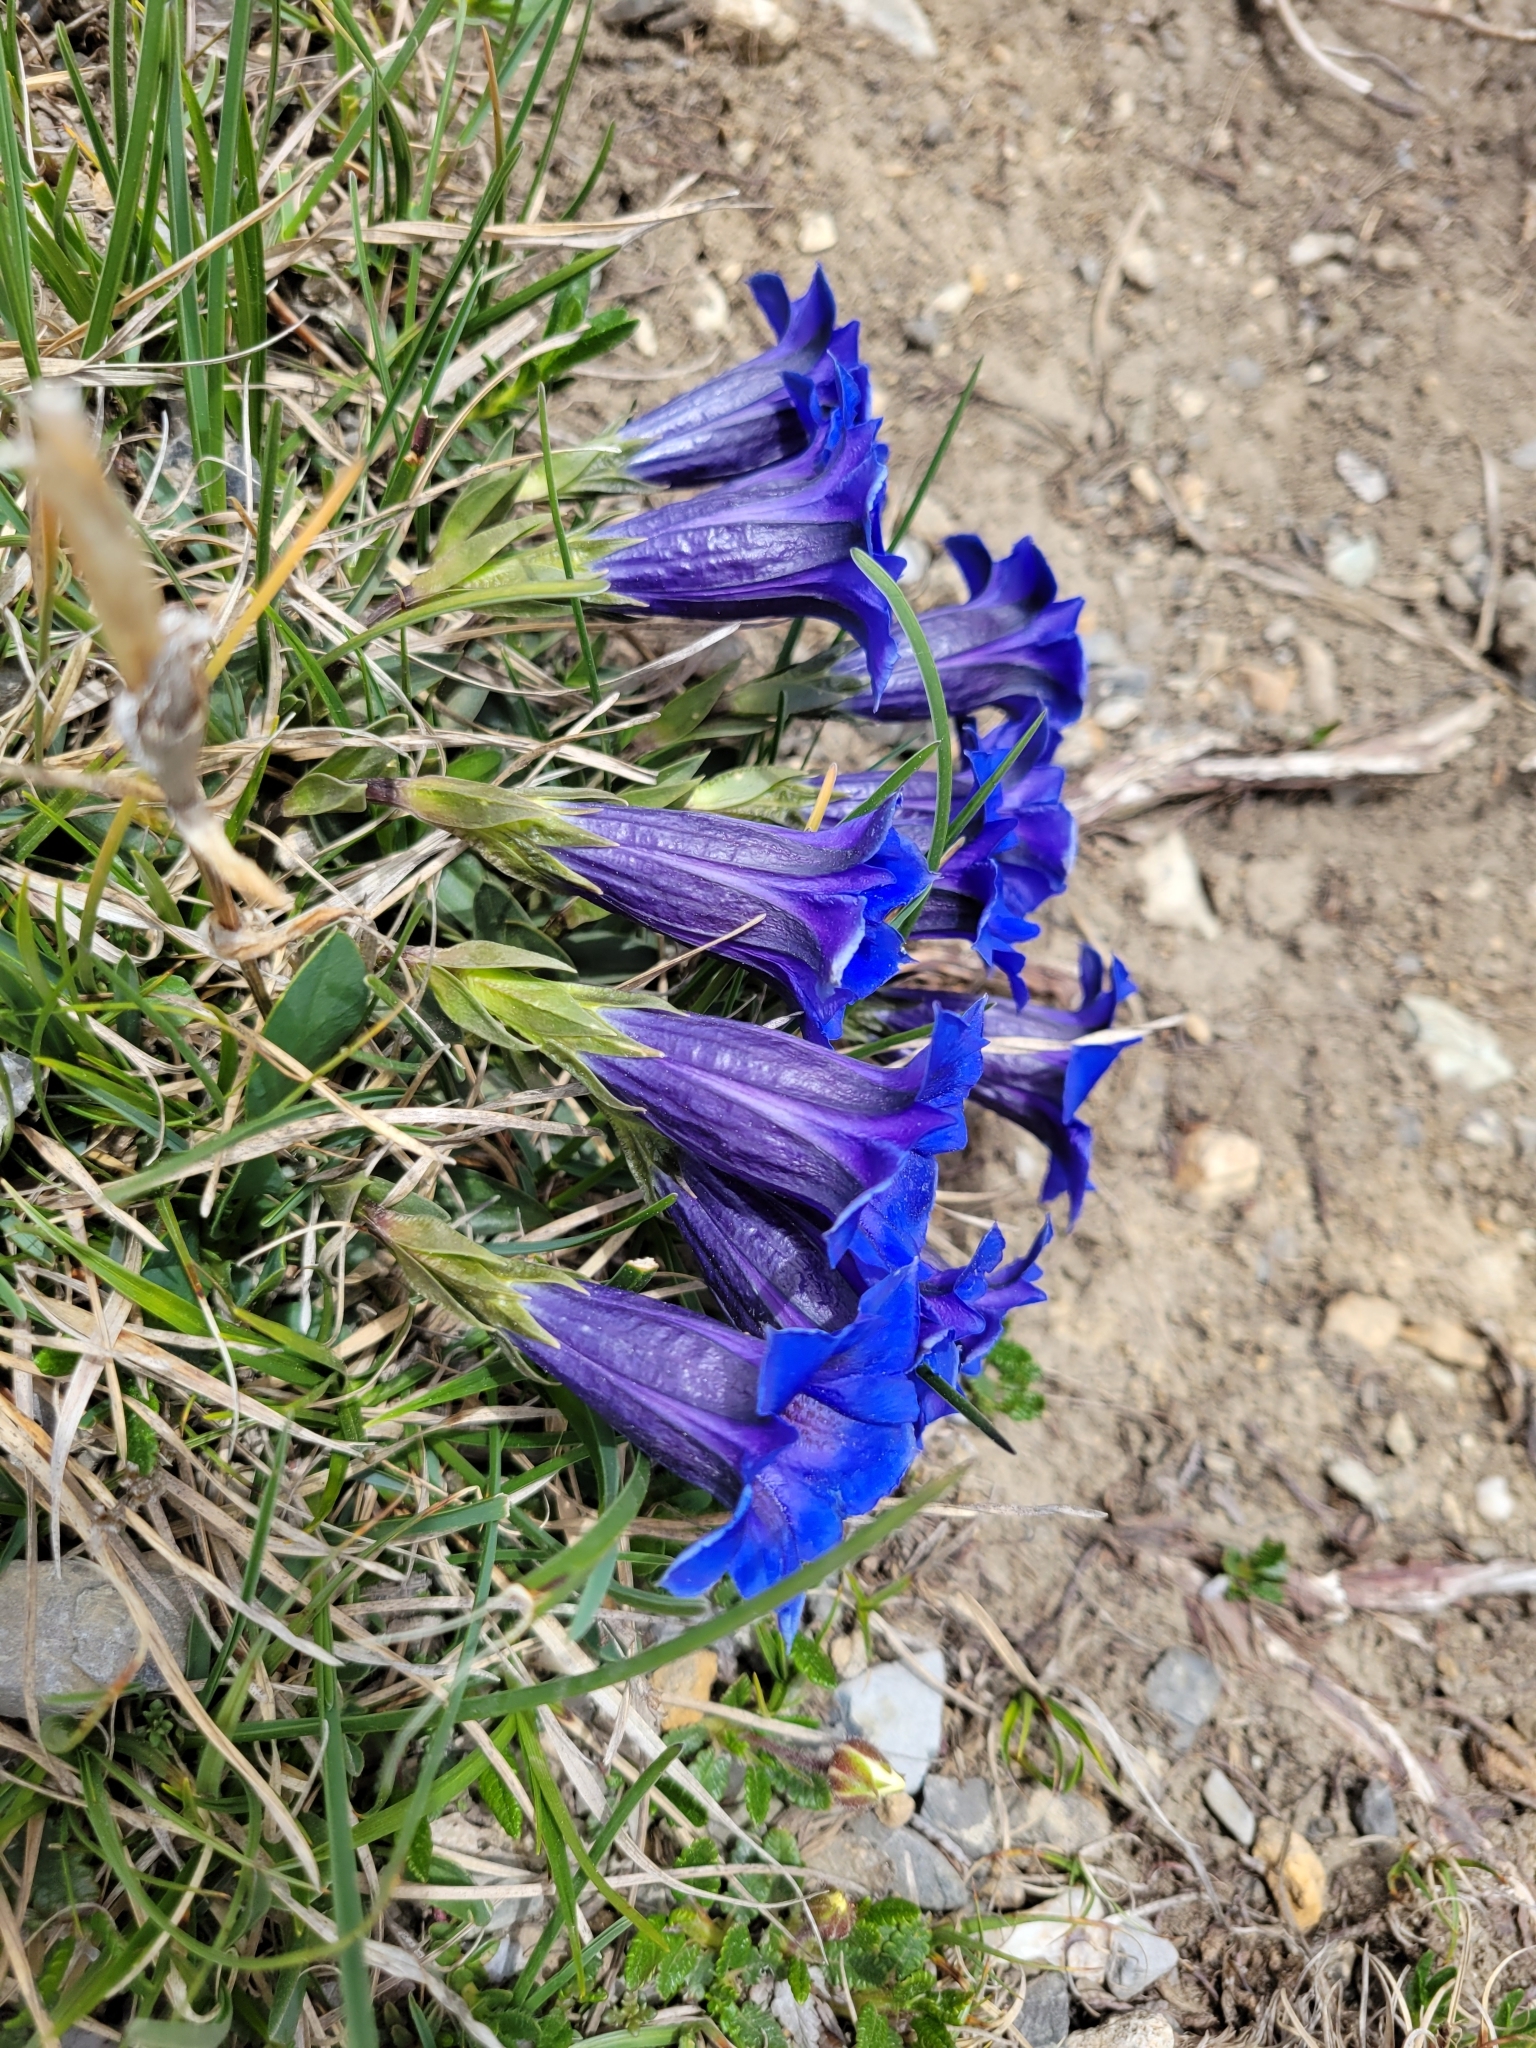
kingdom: Plantae
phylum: Tracheophyta
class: Magnoliopsida
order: Gentianales
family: Gentianaceae
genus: Gentiana
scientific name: Gentiana clusii
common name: Trumpet gentian
